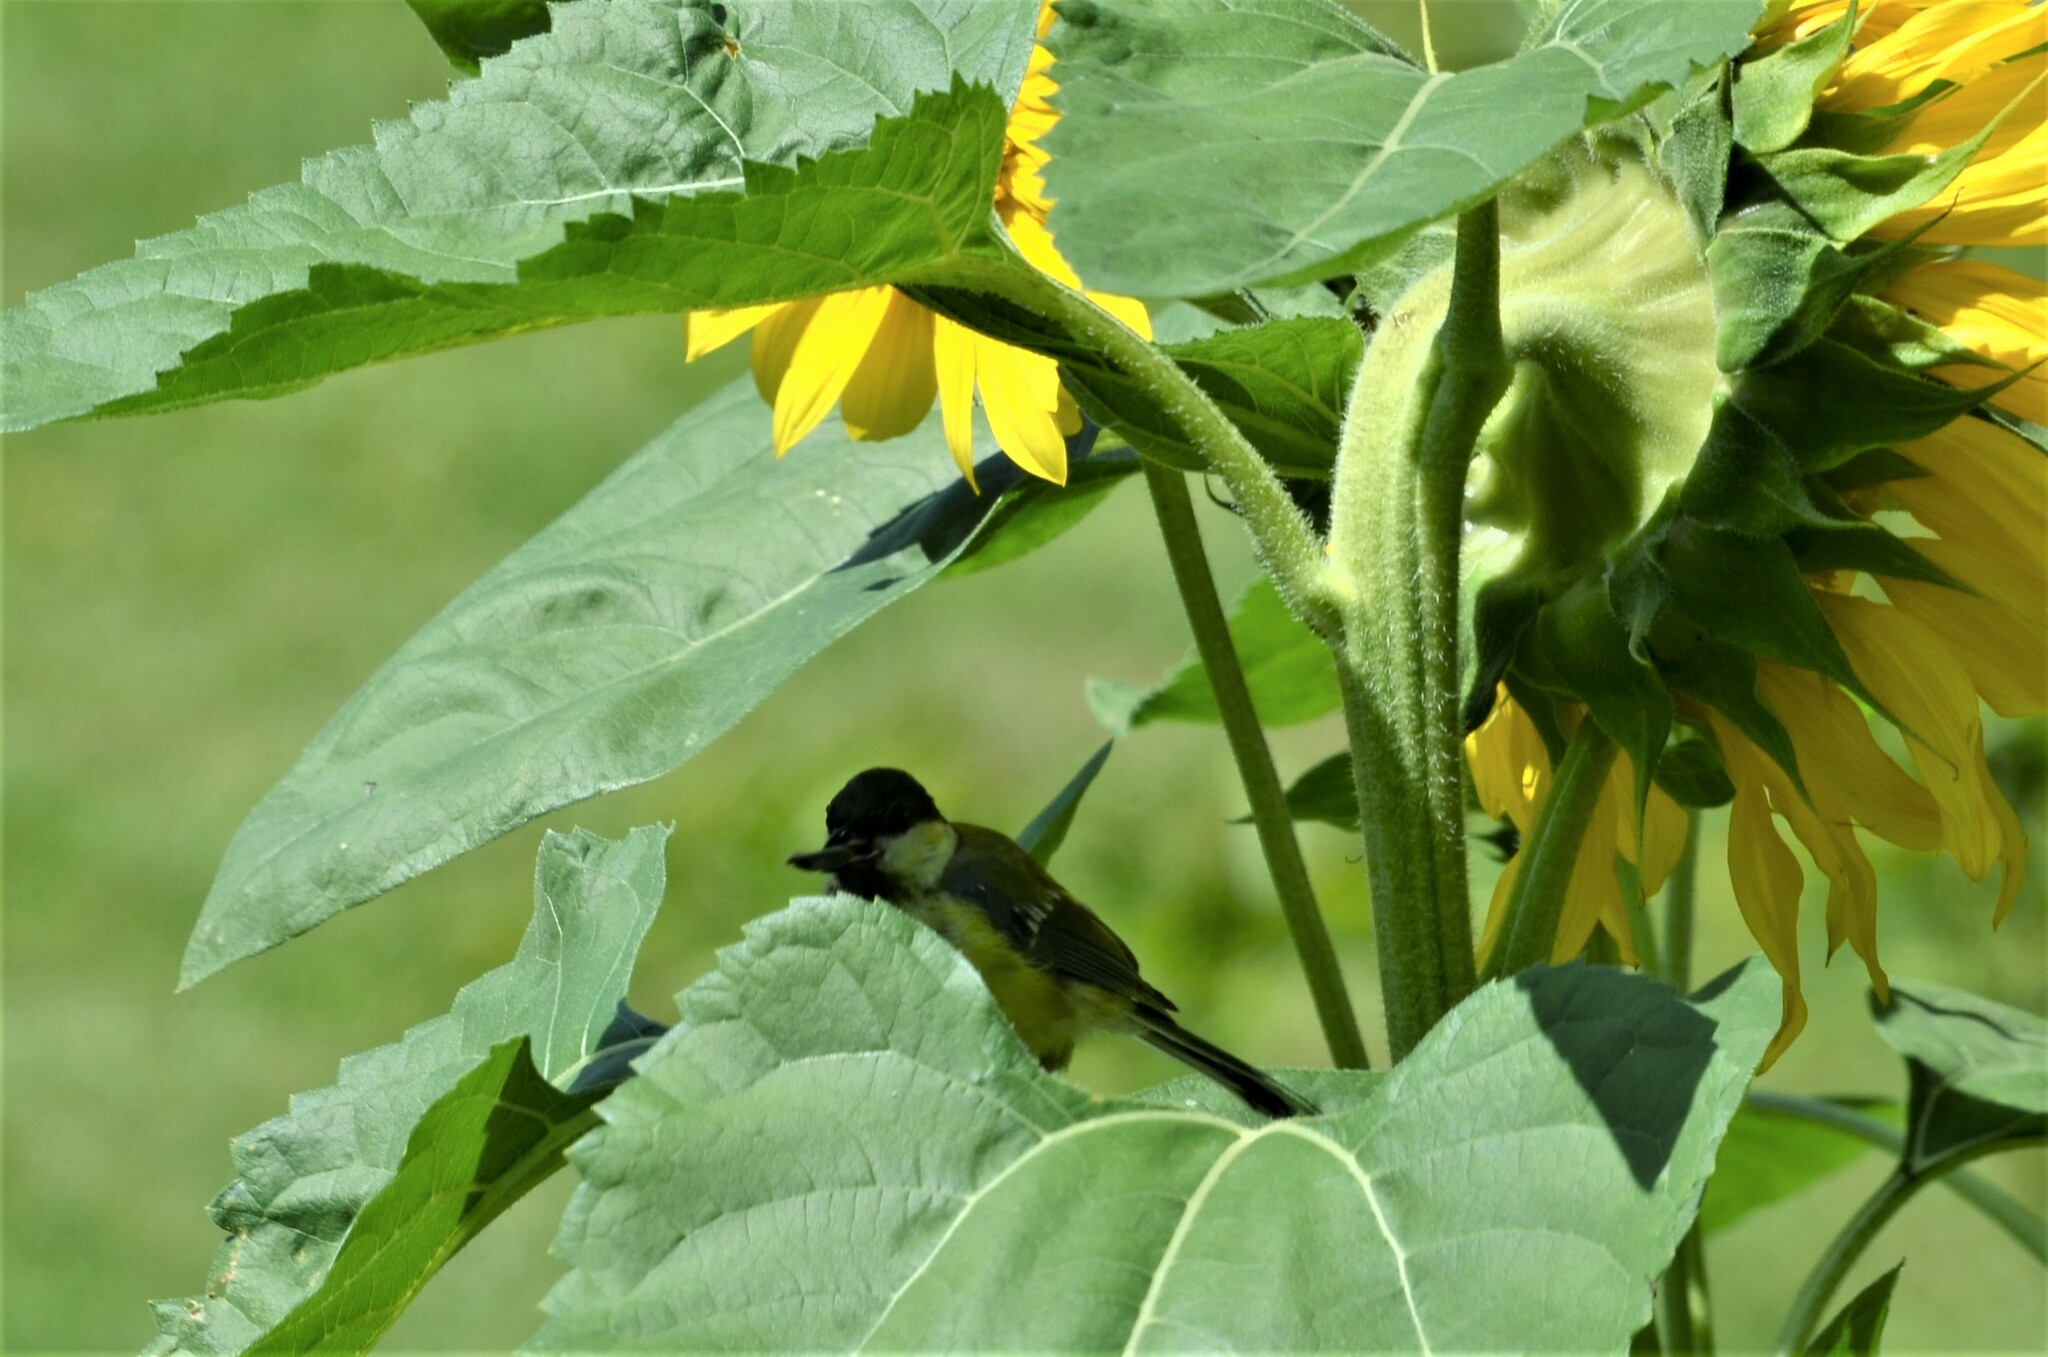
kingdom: Animalia
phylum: Chordata
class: Aves
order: Passeriformes
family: Paridae
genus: Parus
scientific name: Parus major
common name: Great tit
